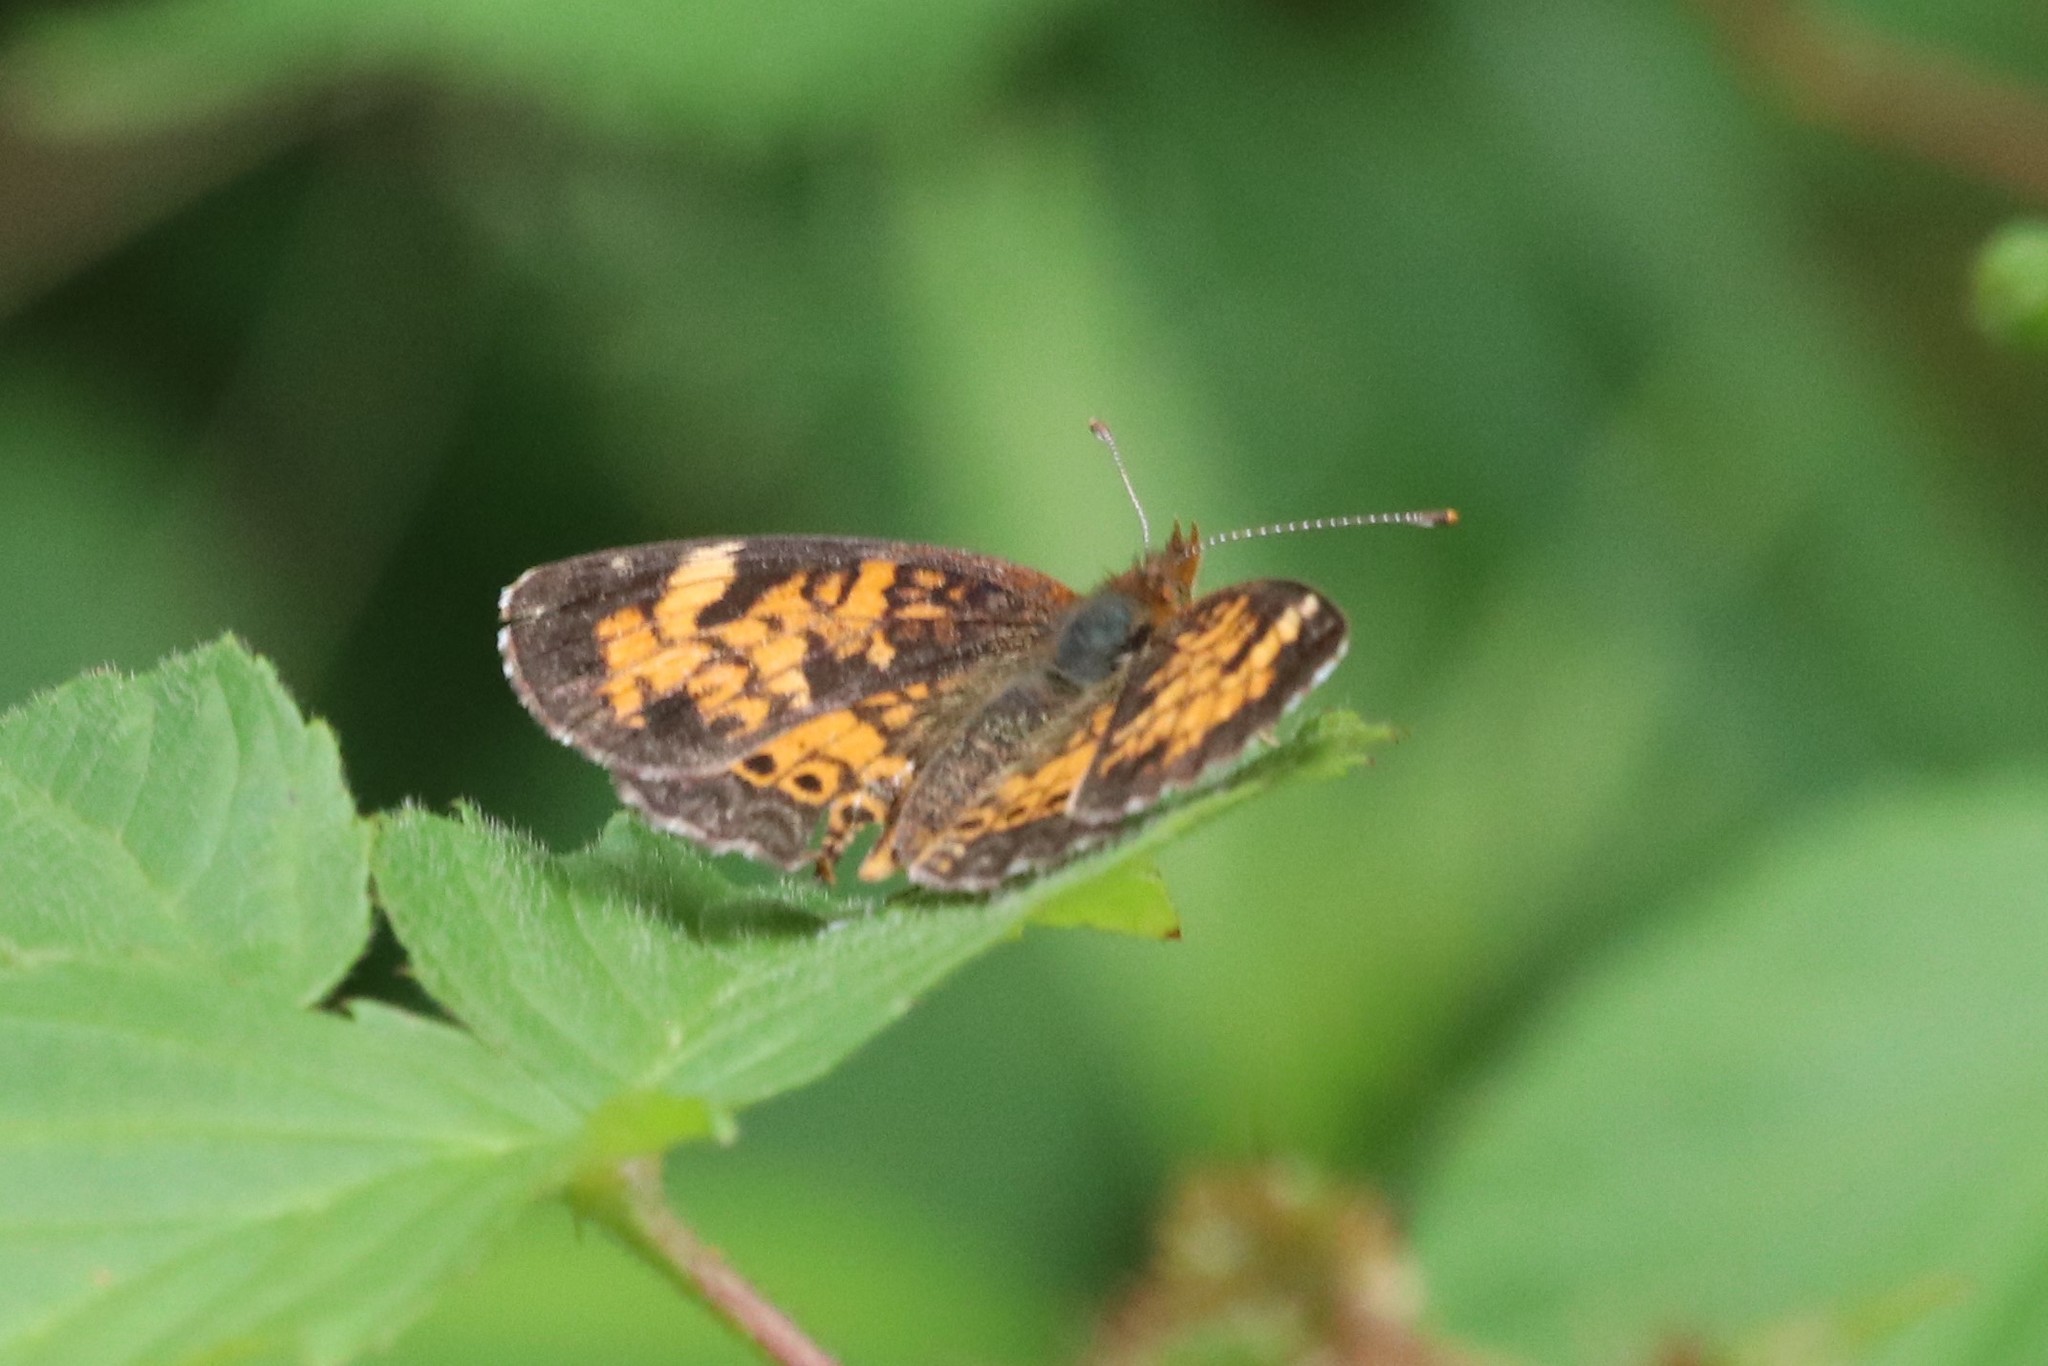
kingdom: Animalia
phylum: Arthropoda
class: Insecta
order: Lepidoptera
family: Nymphalidae
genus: Phyciodes
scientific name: Phyciodes tharos
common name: Pearl crescent
